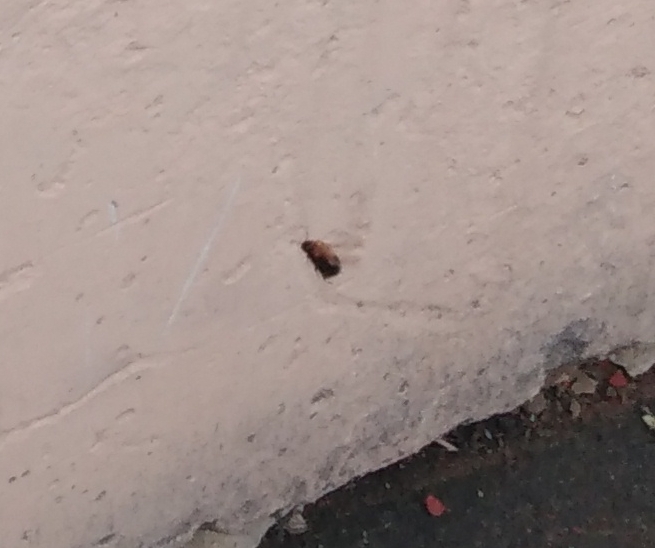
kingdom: Animalia
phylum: Arthropoda
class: Insecta
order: Hymenoptera
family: Apidae
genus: Bombus
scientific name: Bombus hypnorum
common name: New garden bumblebee
